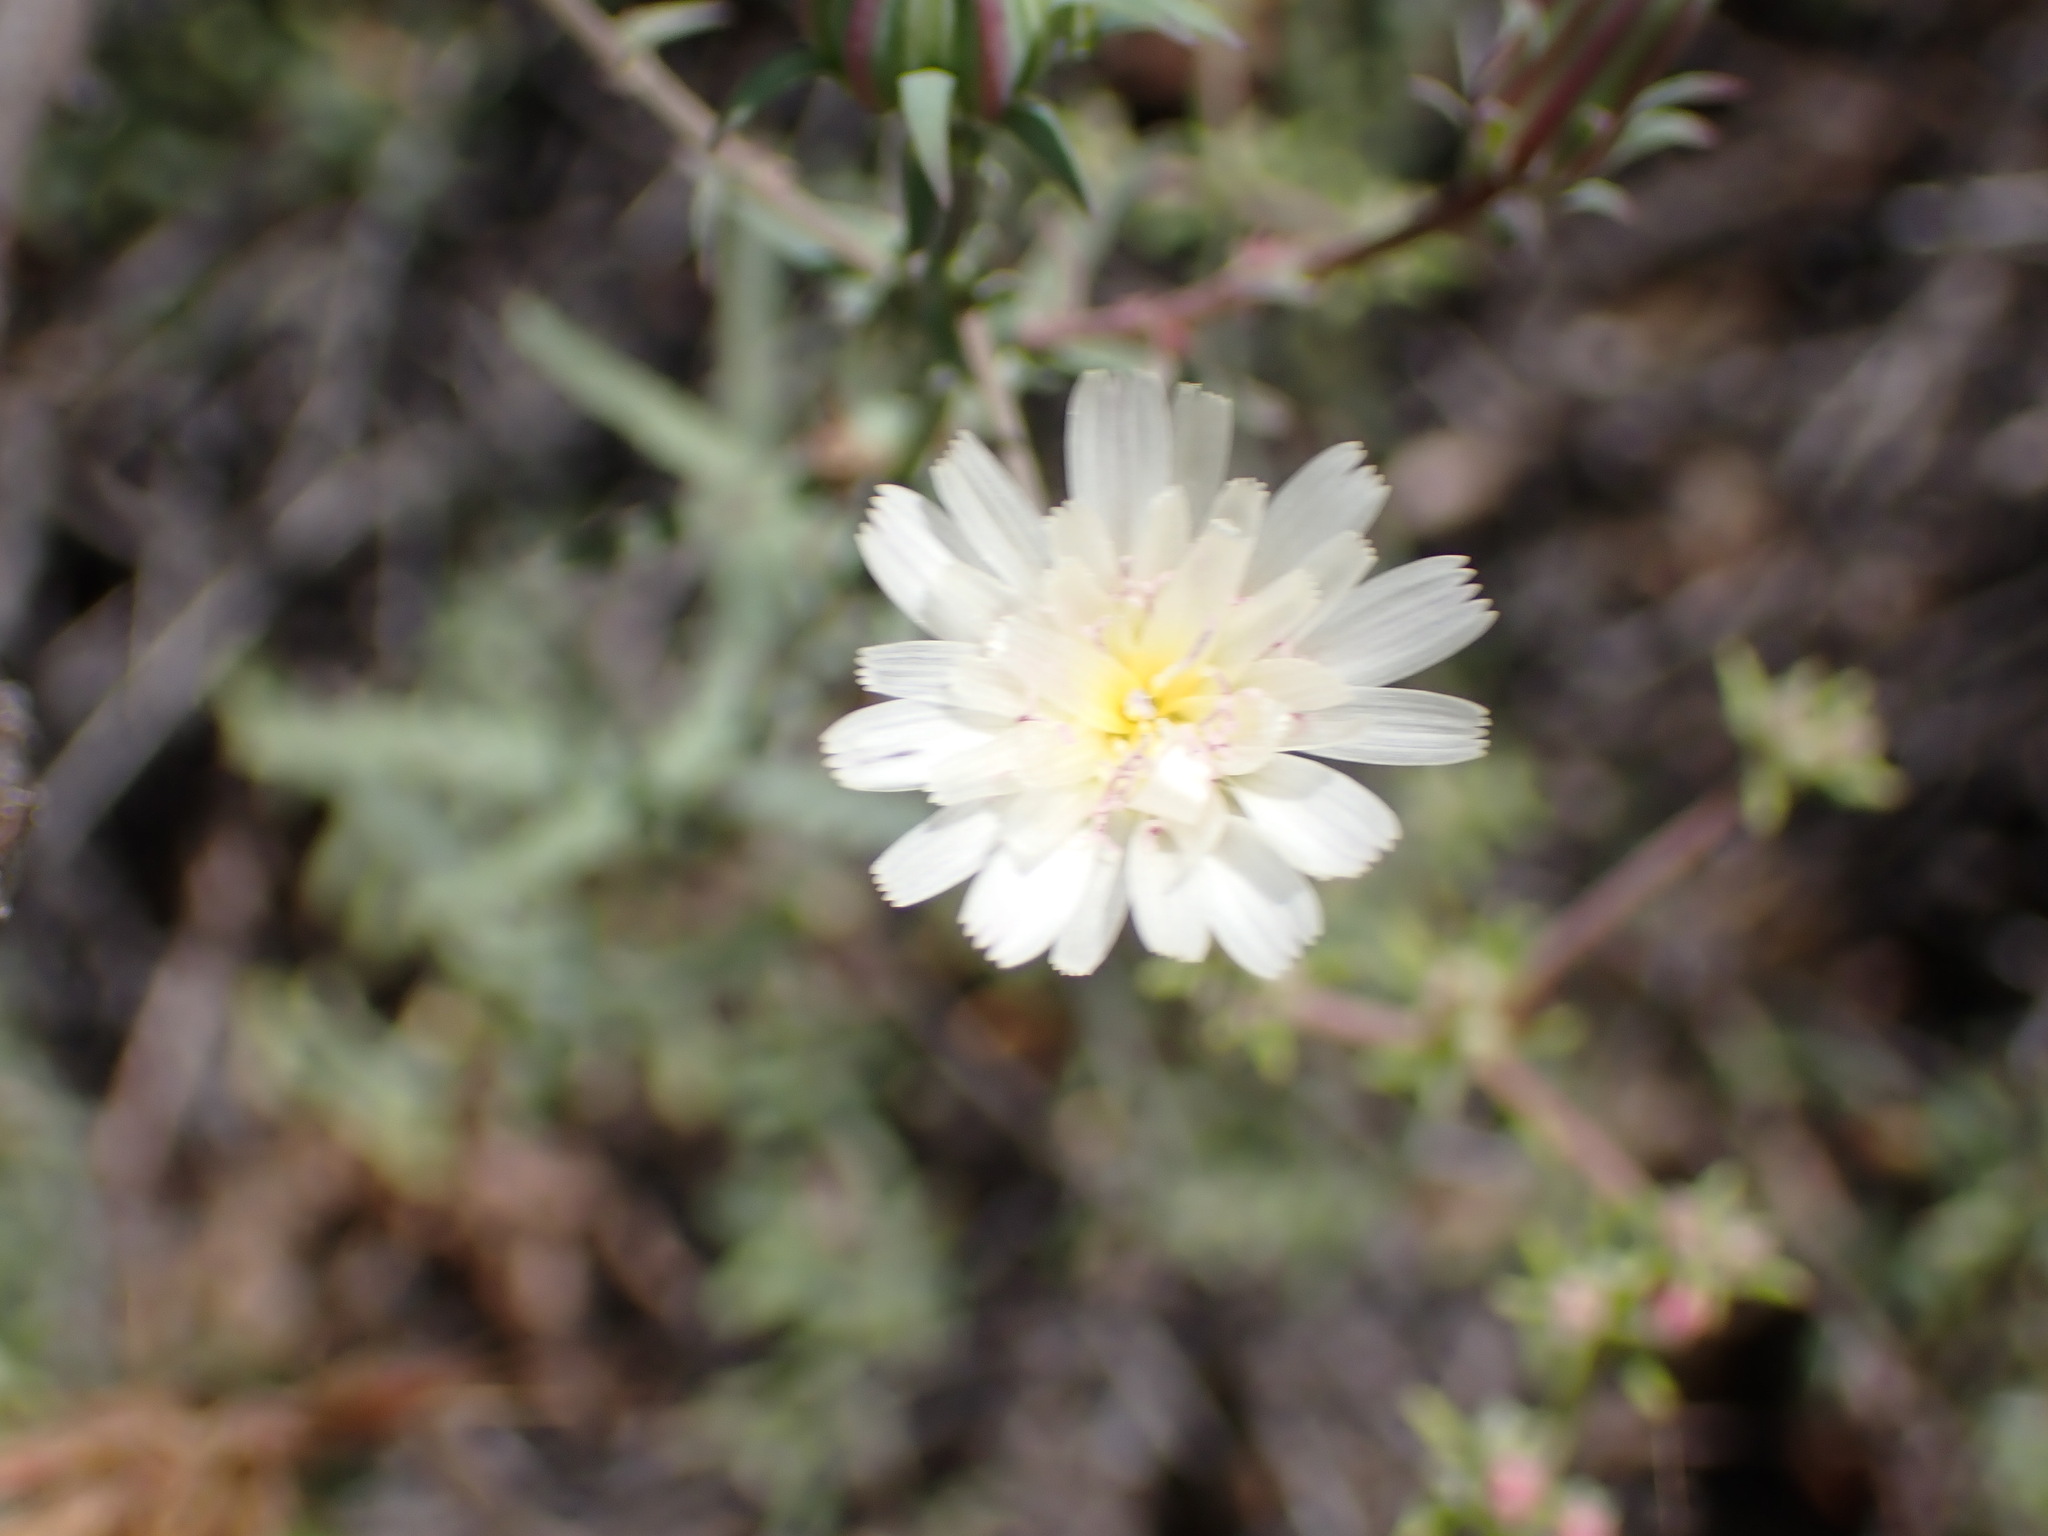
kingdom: Plantae
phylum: Tracheophyta
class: Magnoliopsida
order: Asterales
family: Asteraceae
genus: Rafinesquia
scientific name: Rafinesquia californica
